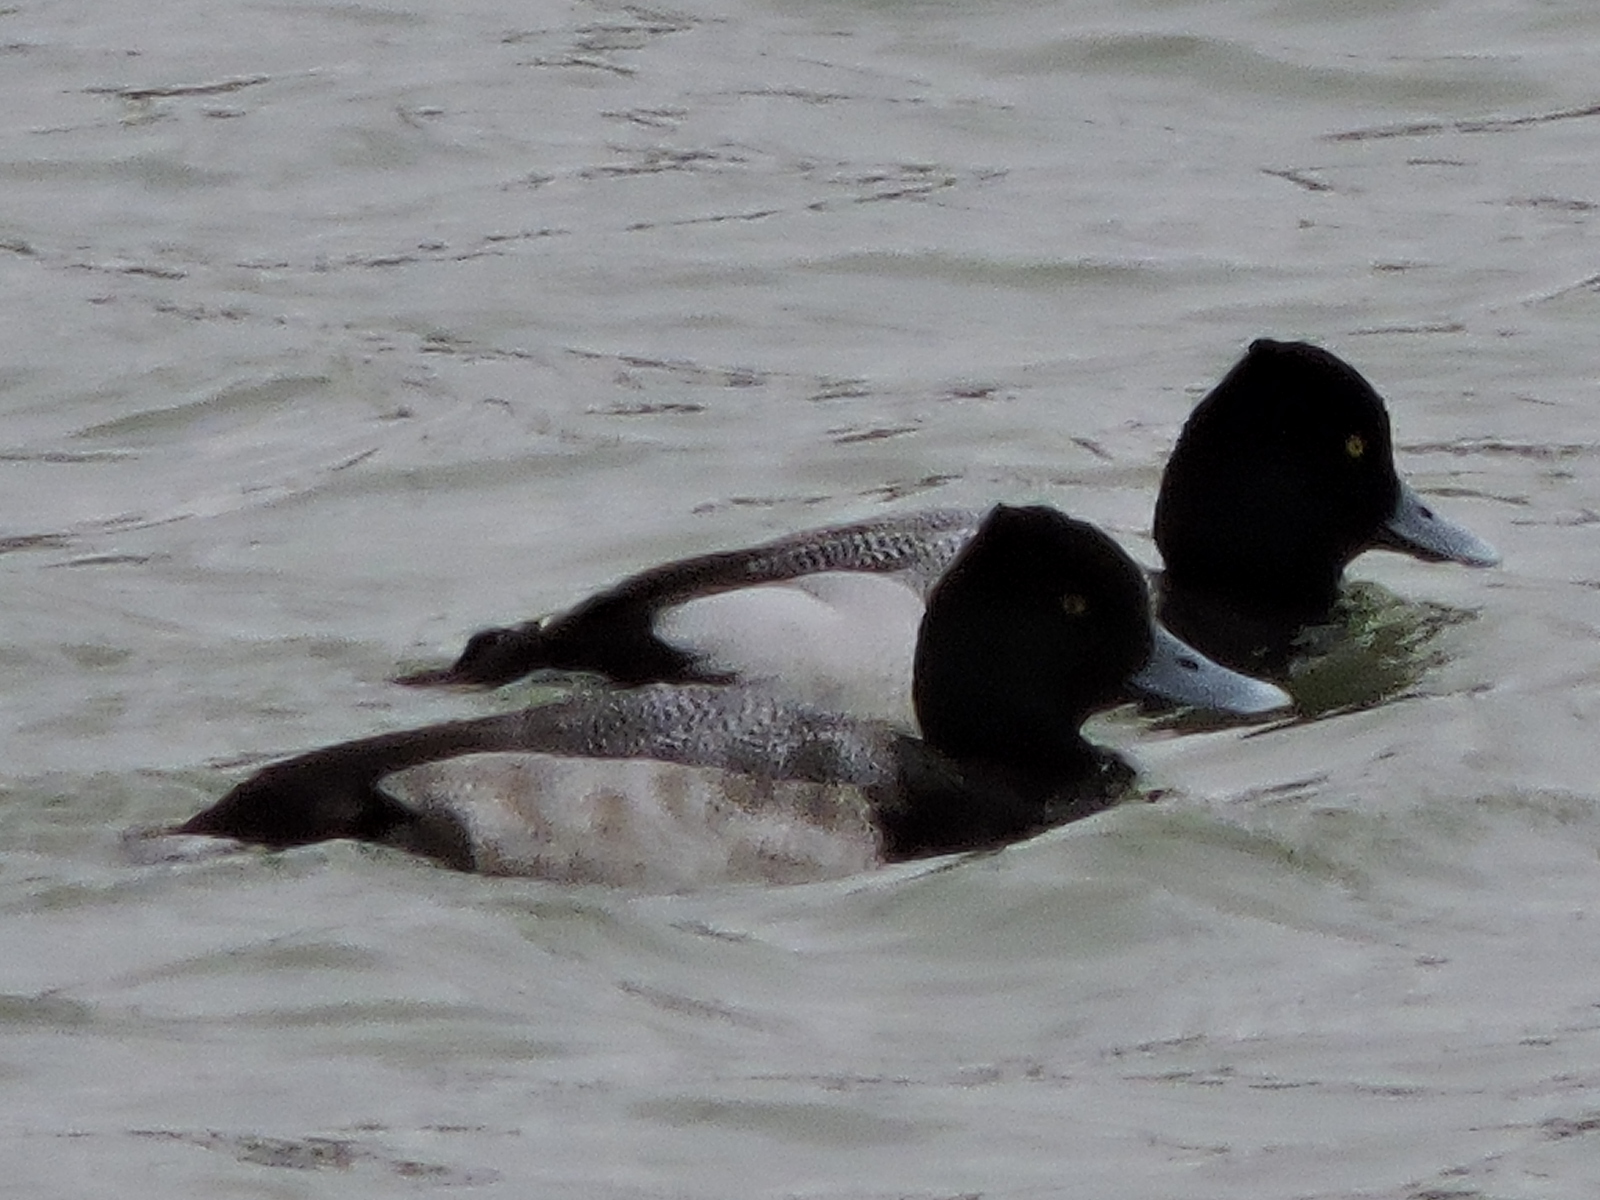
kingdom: Animalia
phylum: Chordata
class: Aves
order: Anseriformes
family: Anatidae
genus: Aythya
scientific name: Aythya affinis
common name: Lesser scaup
